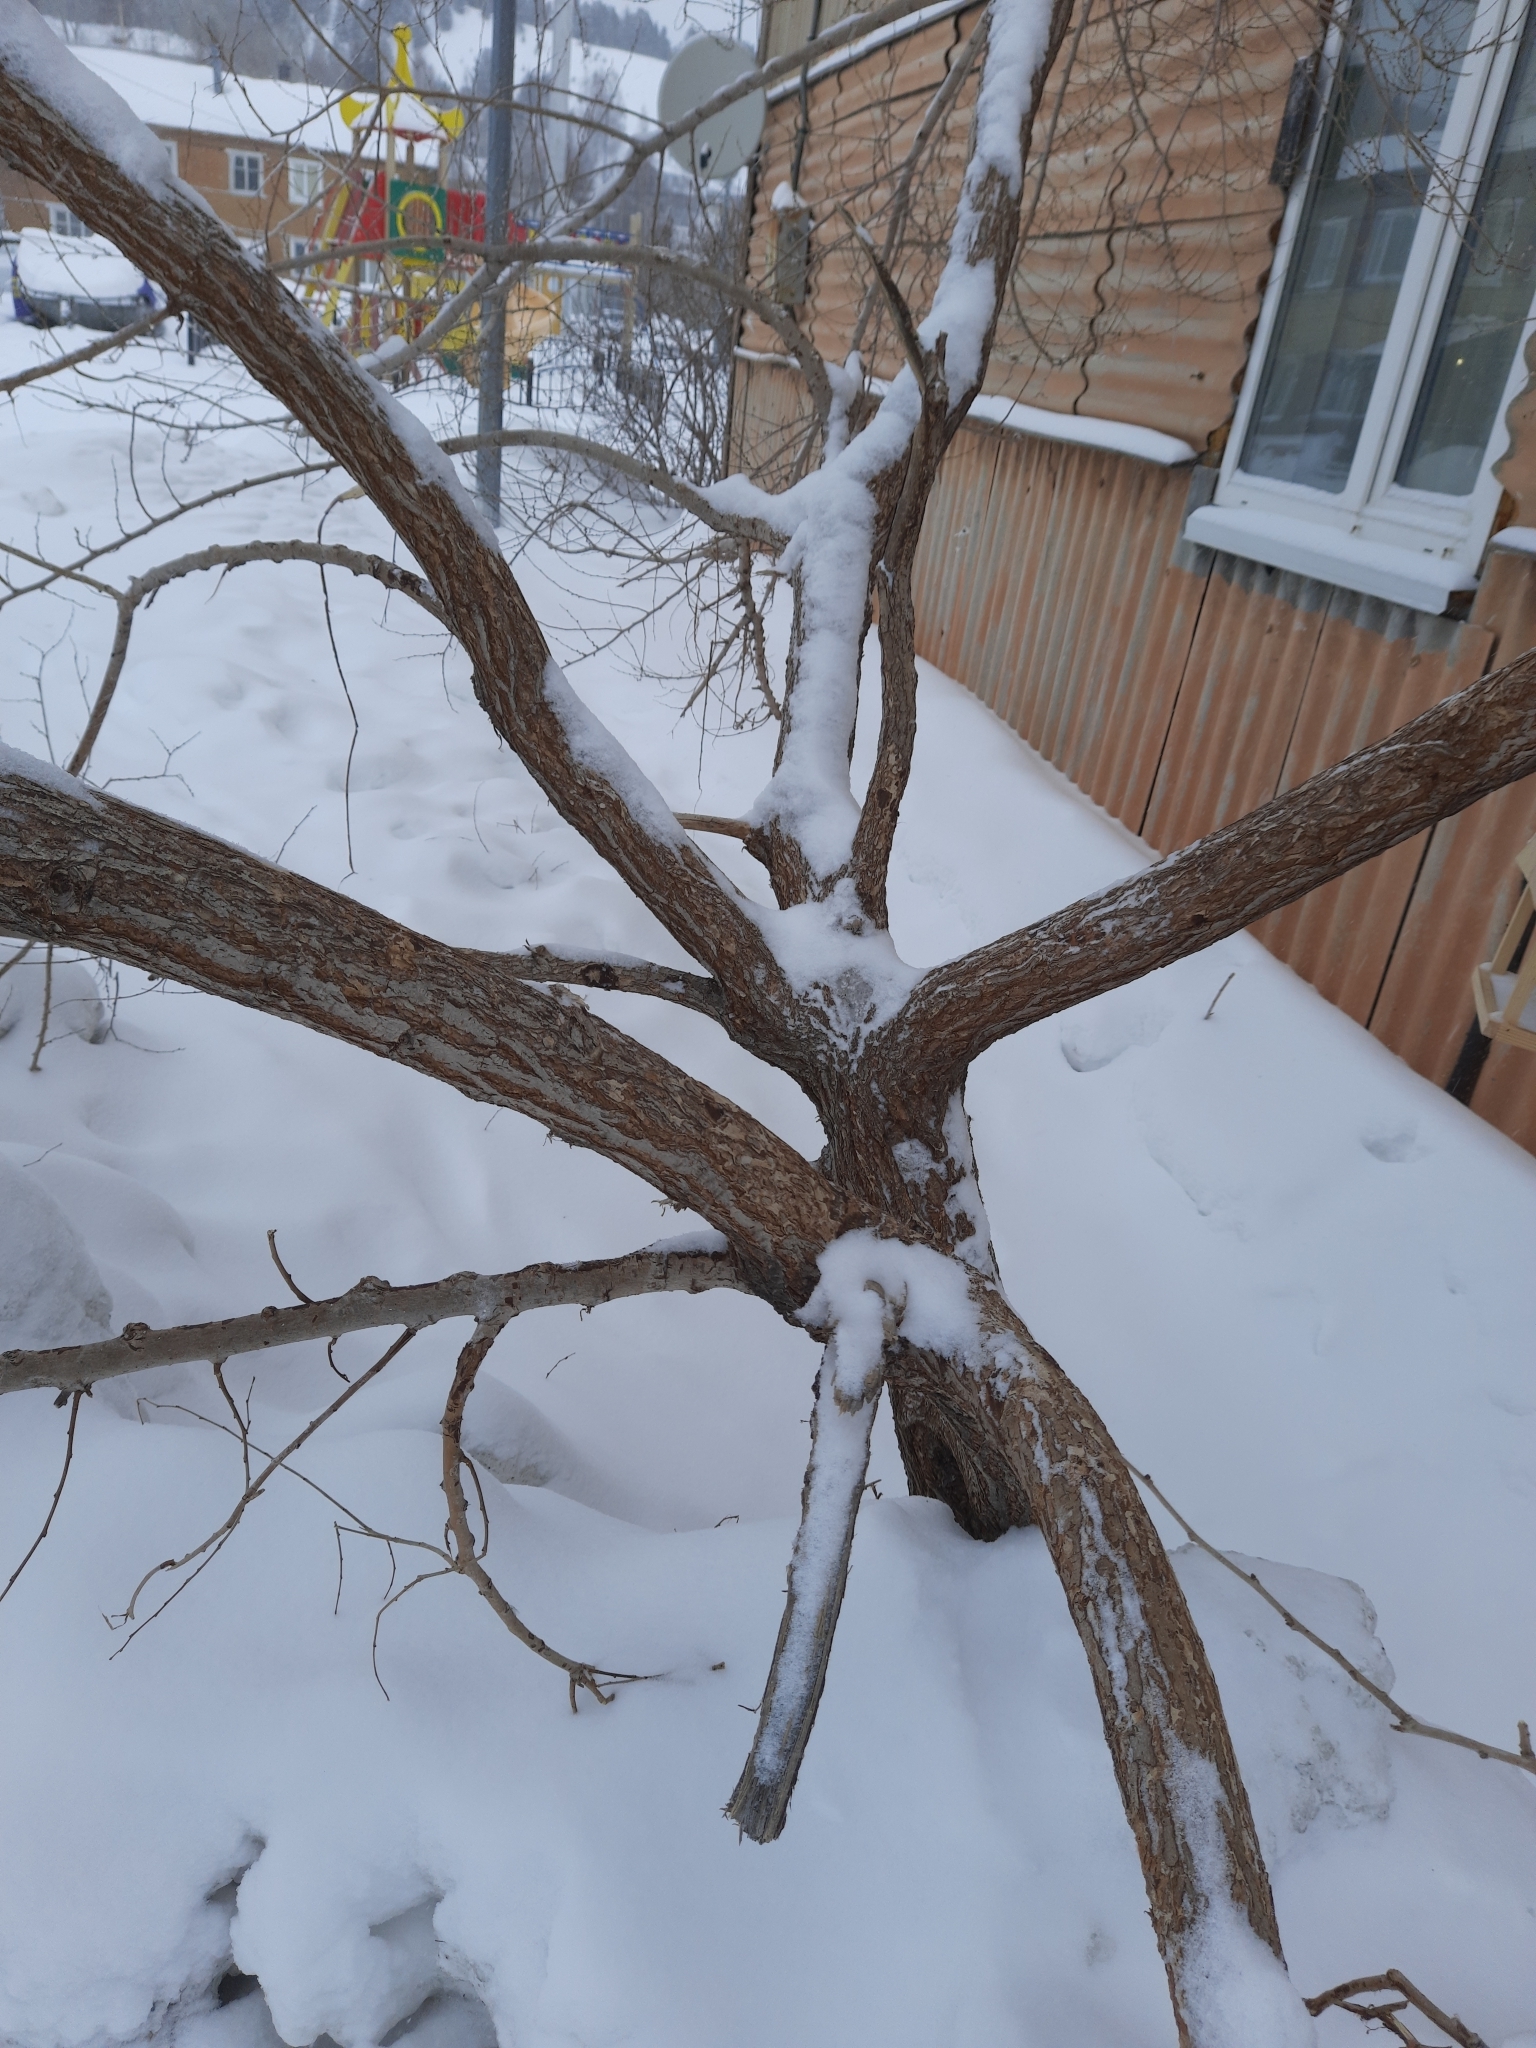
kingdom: Plantae
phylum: Tracheophyta
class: Magnoliopsida
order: Rosales
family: Ulmaceae
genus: Ulmus
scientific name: Ulmus pumila
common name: Siberian elm
